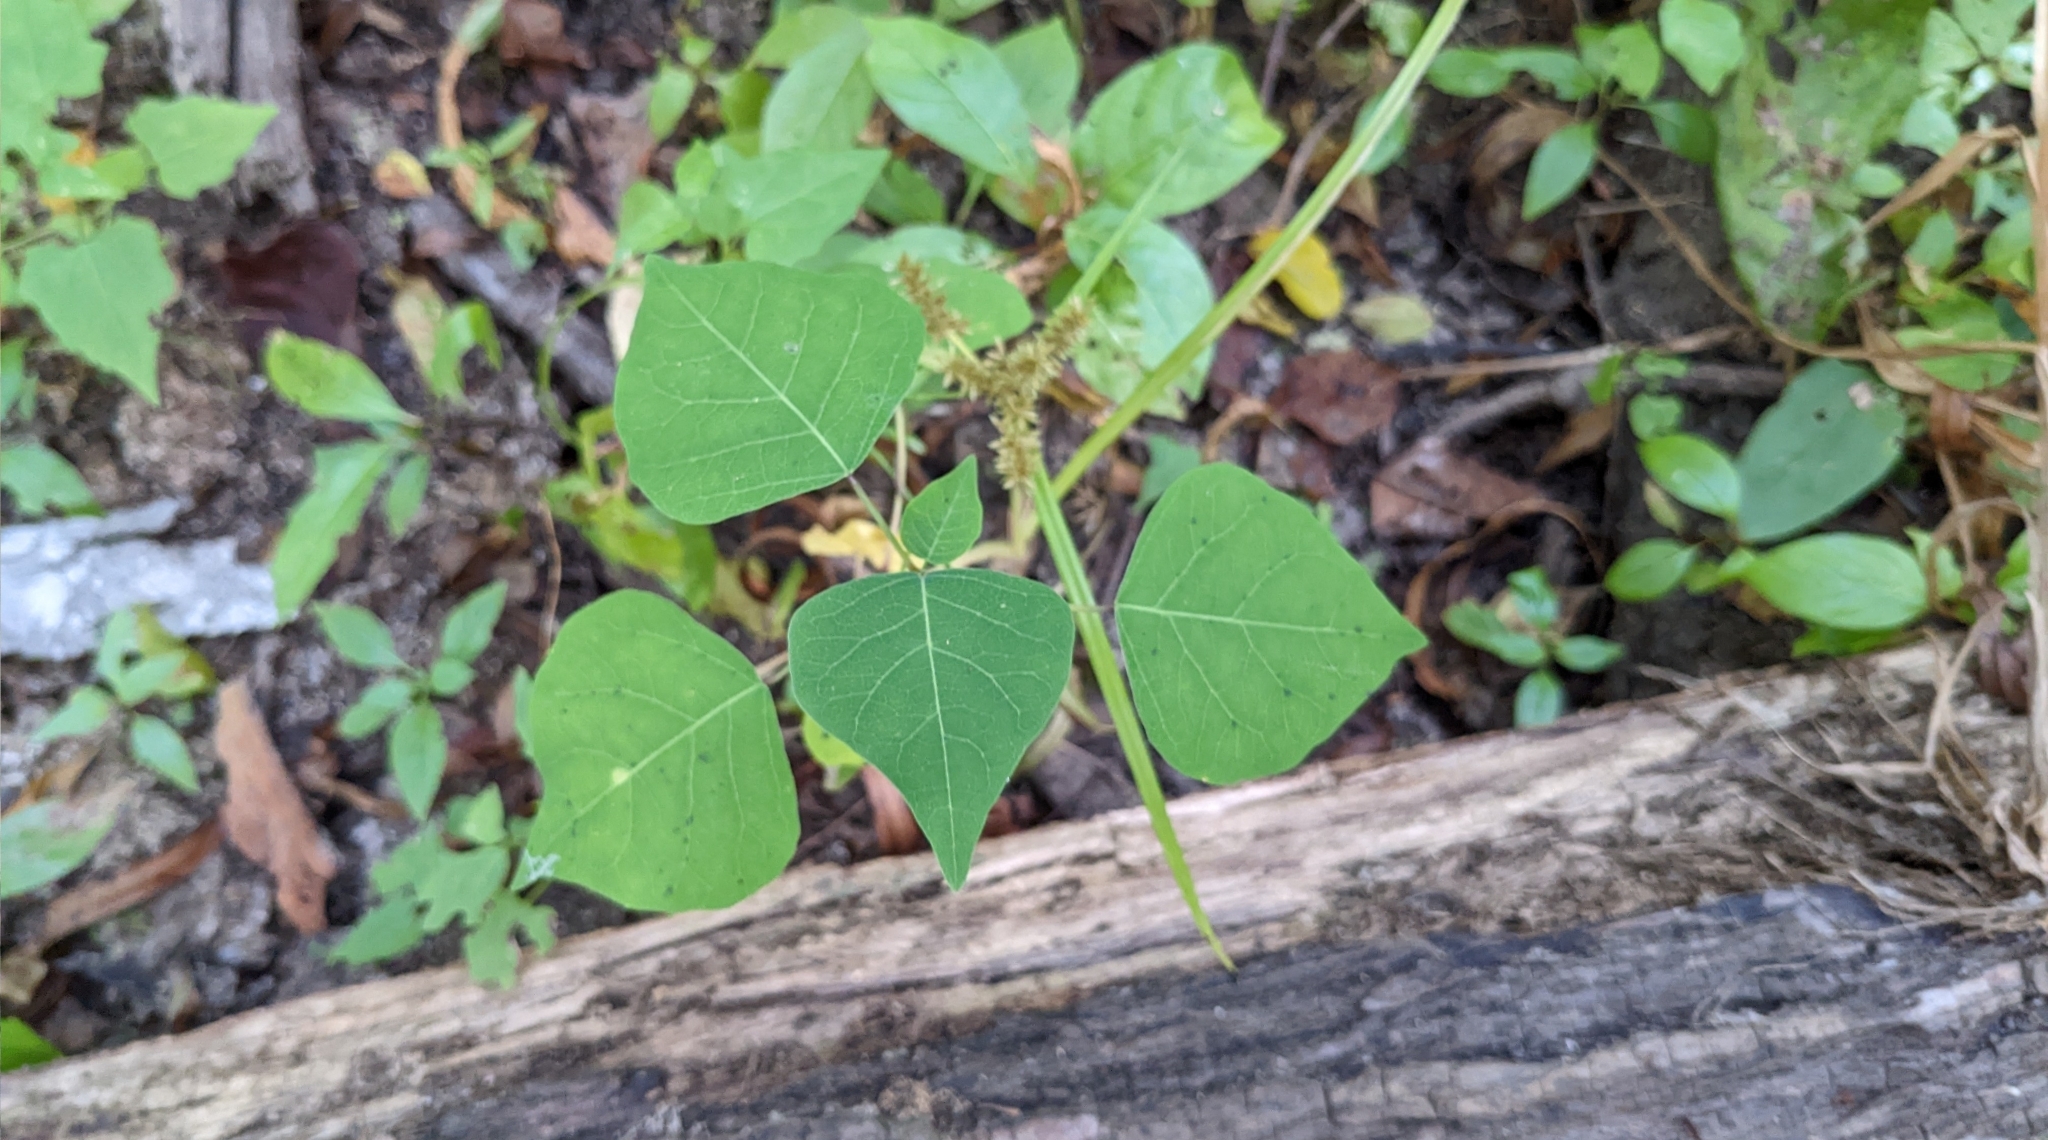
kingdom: Plantae
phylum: Tracheophyta
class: Magnoliopsida
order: Malpighiales
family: Euphorbiaceae
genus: Triadica
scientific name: Triadica sebifera
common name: Chinese tallow
